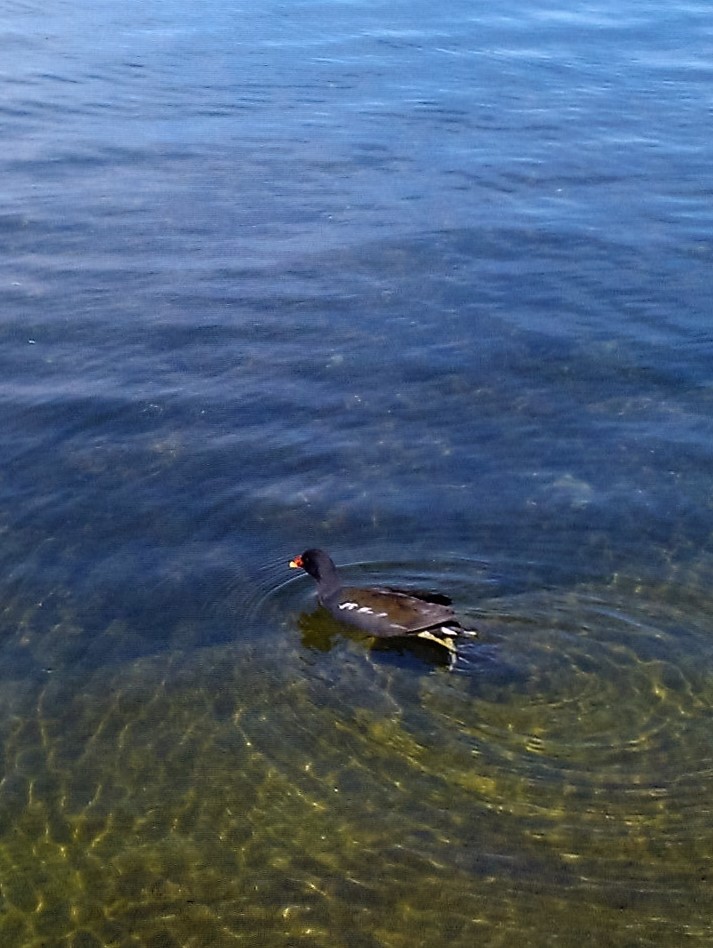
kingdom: Animalia
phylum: Chordata
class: Aves
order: Gruiformes
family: Rallidae
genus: Gallinula
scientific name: Gallinula chloropus
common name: Common moorhen
